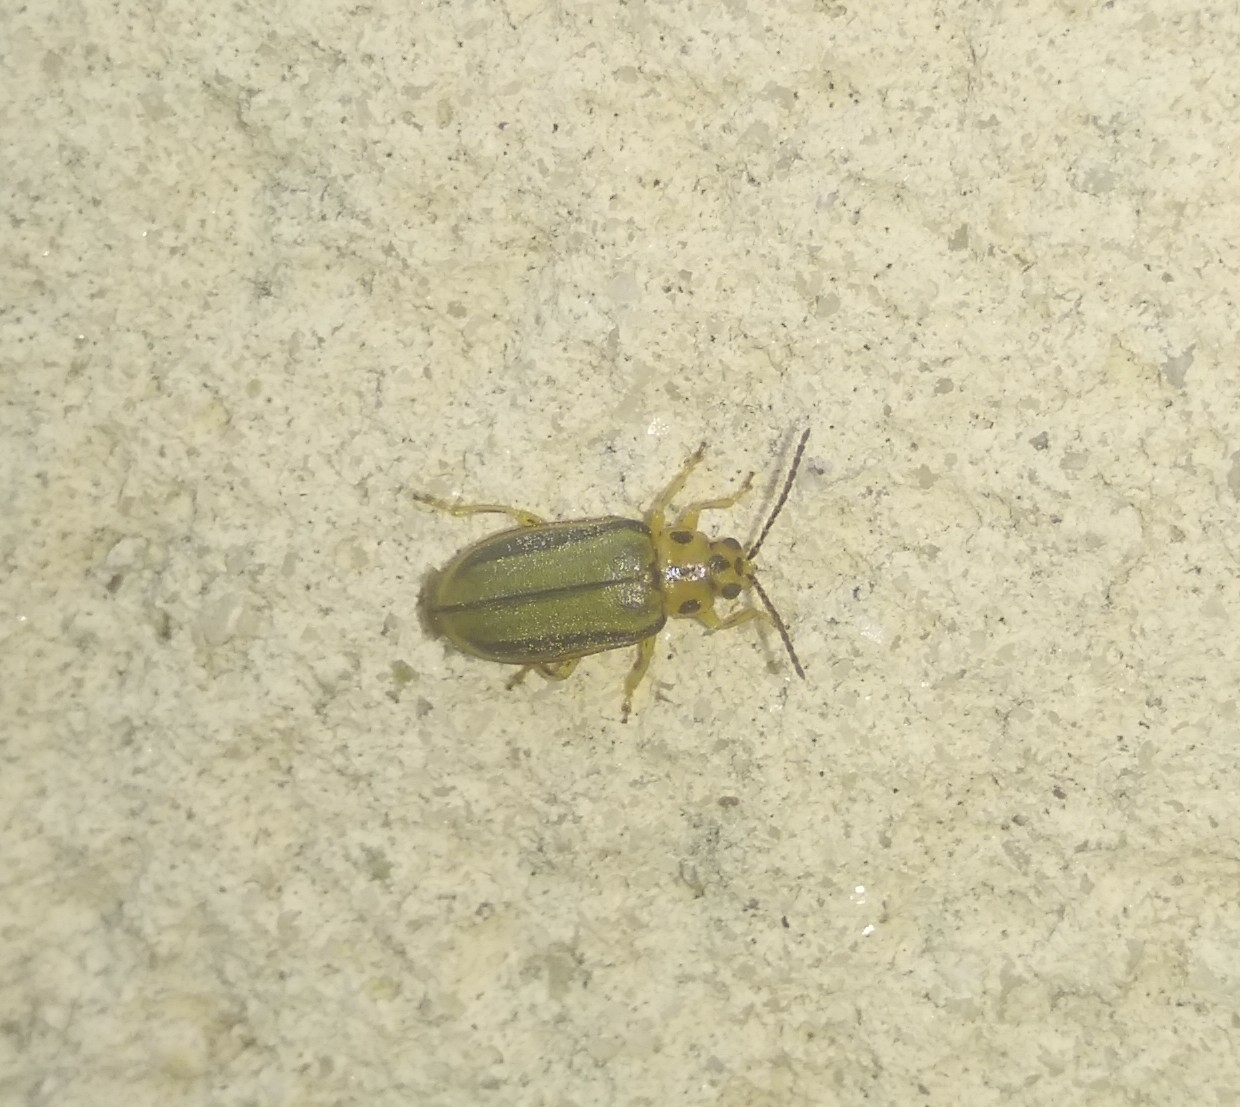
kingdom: Animalia
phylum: Arthropoda
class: Insecta
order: Coleoptera
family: Chrysomelidae
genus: Xanthogaleruca
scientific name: Xanthogaleruca luteola
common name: Elm leaf beetle
